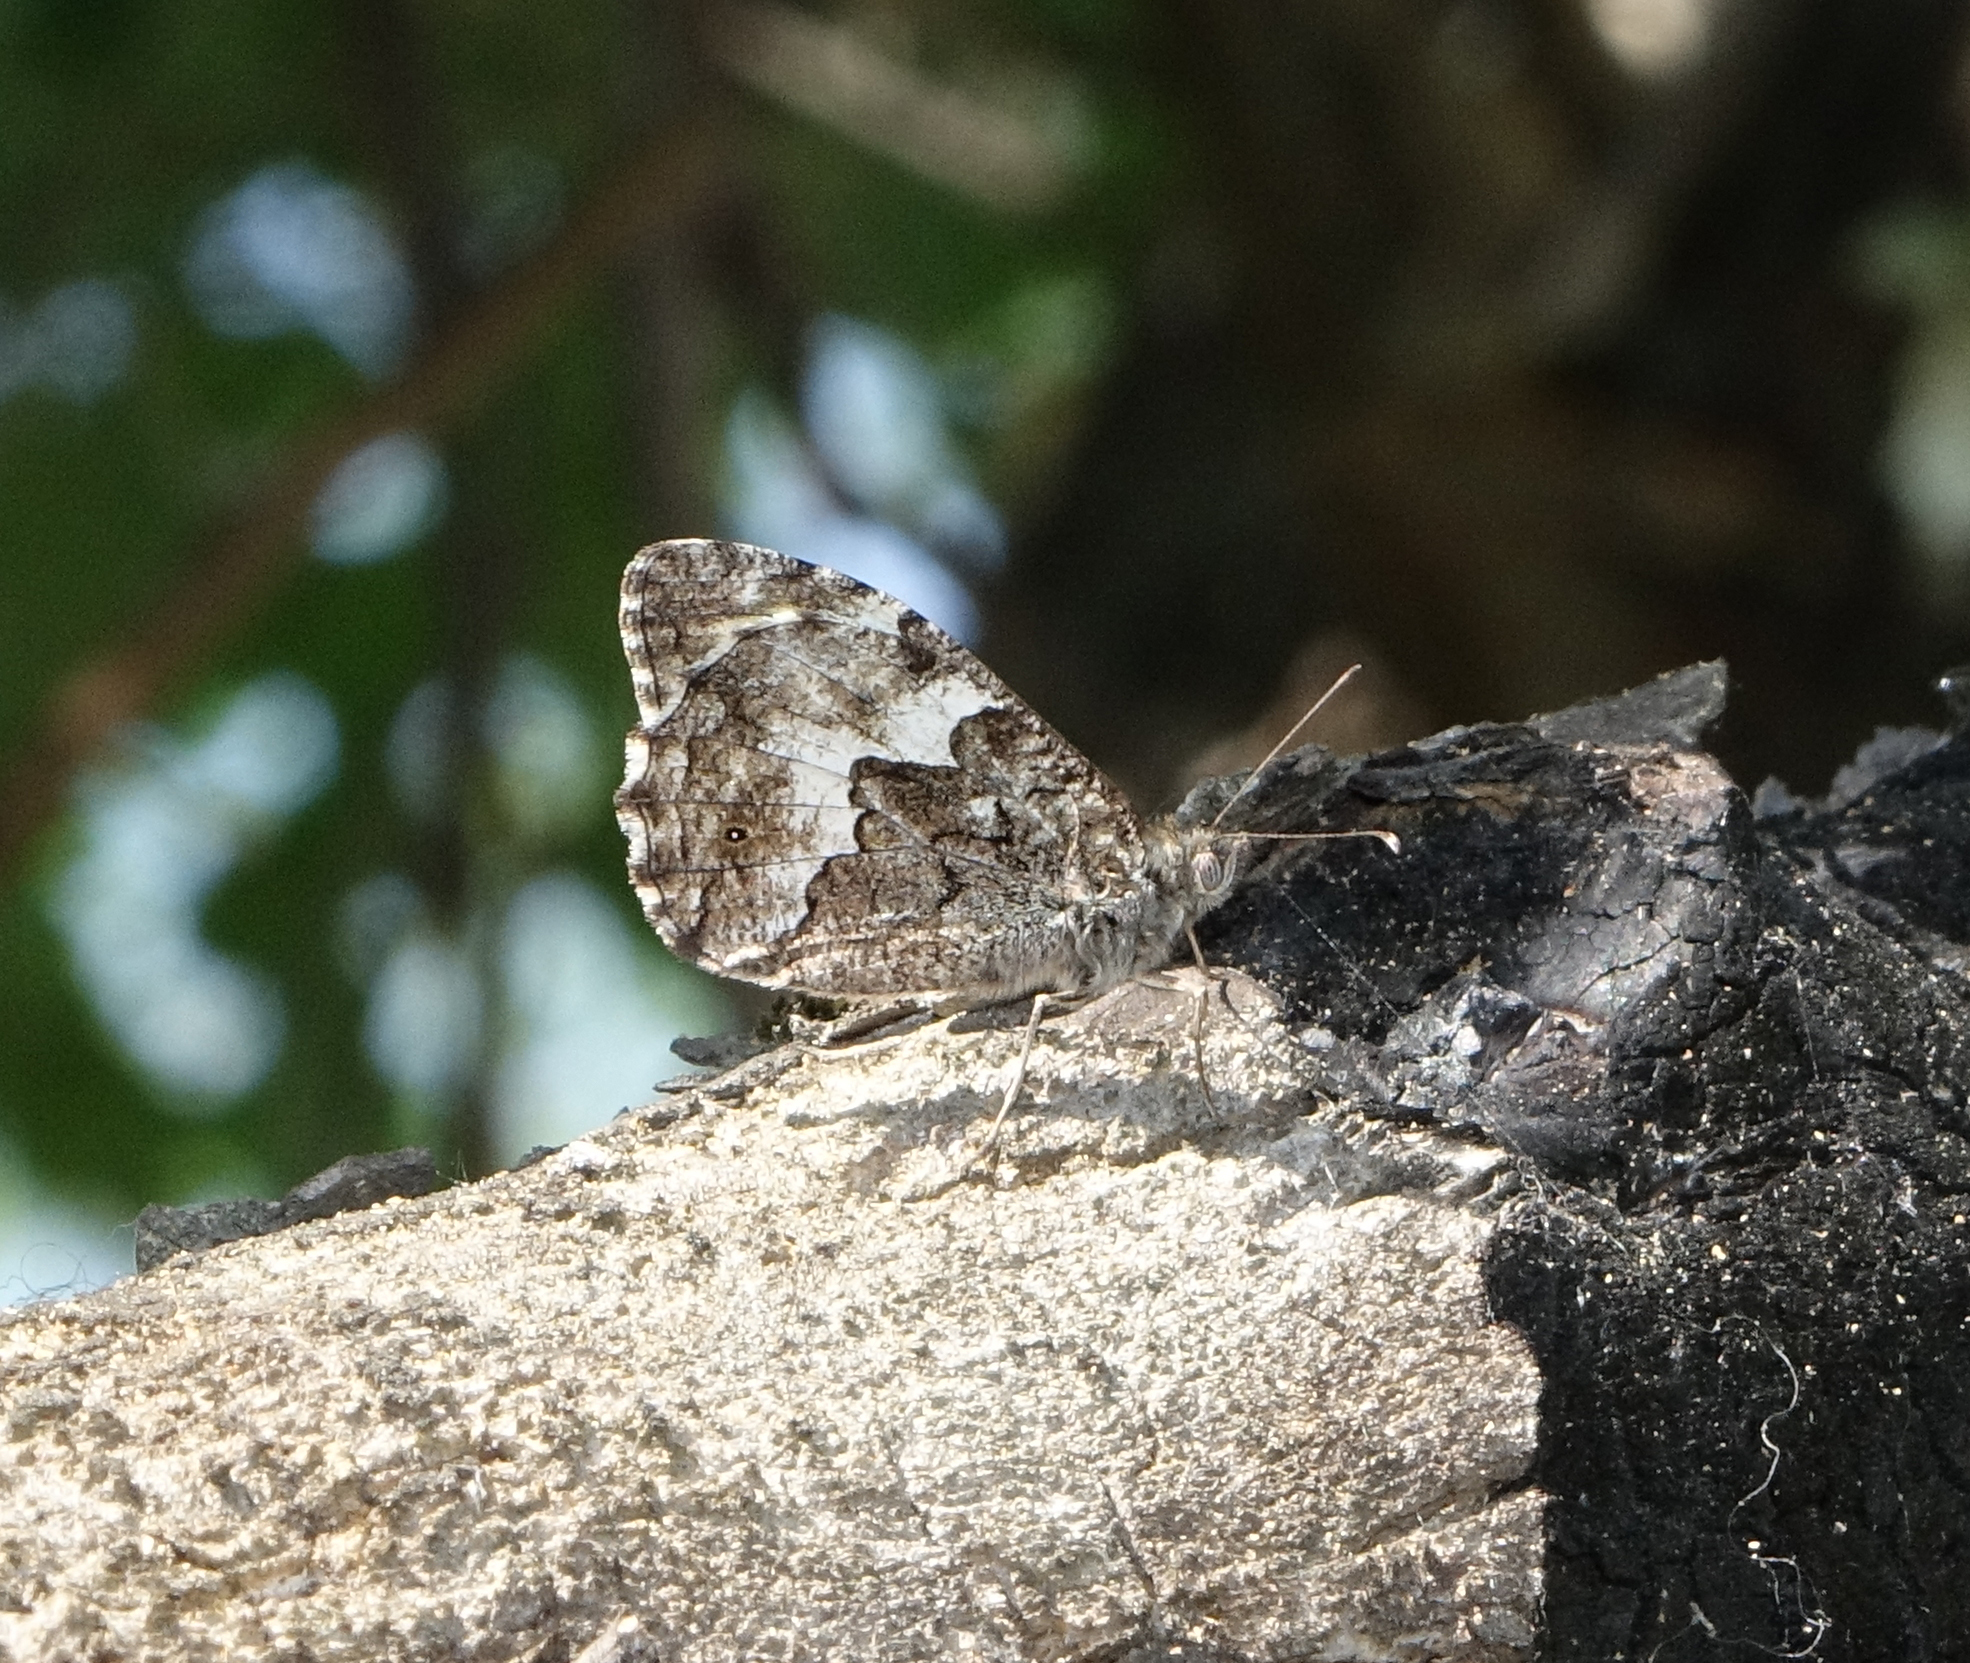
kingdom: Animalia
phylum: Arthropoda
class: Insecta
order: Lepidoptera
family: Nymphalidae
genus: Hipparchia
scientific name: Hipparchia pellucida
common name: Lesbos grayling
